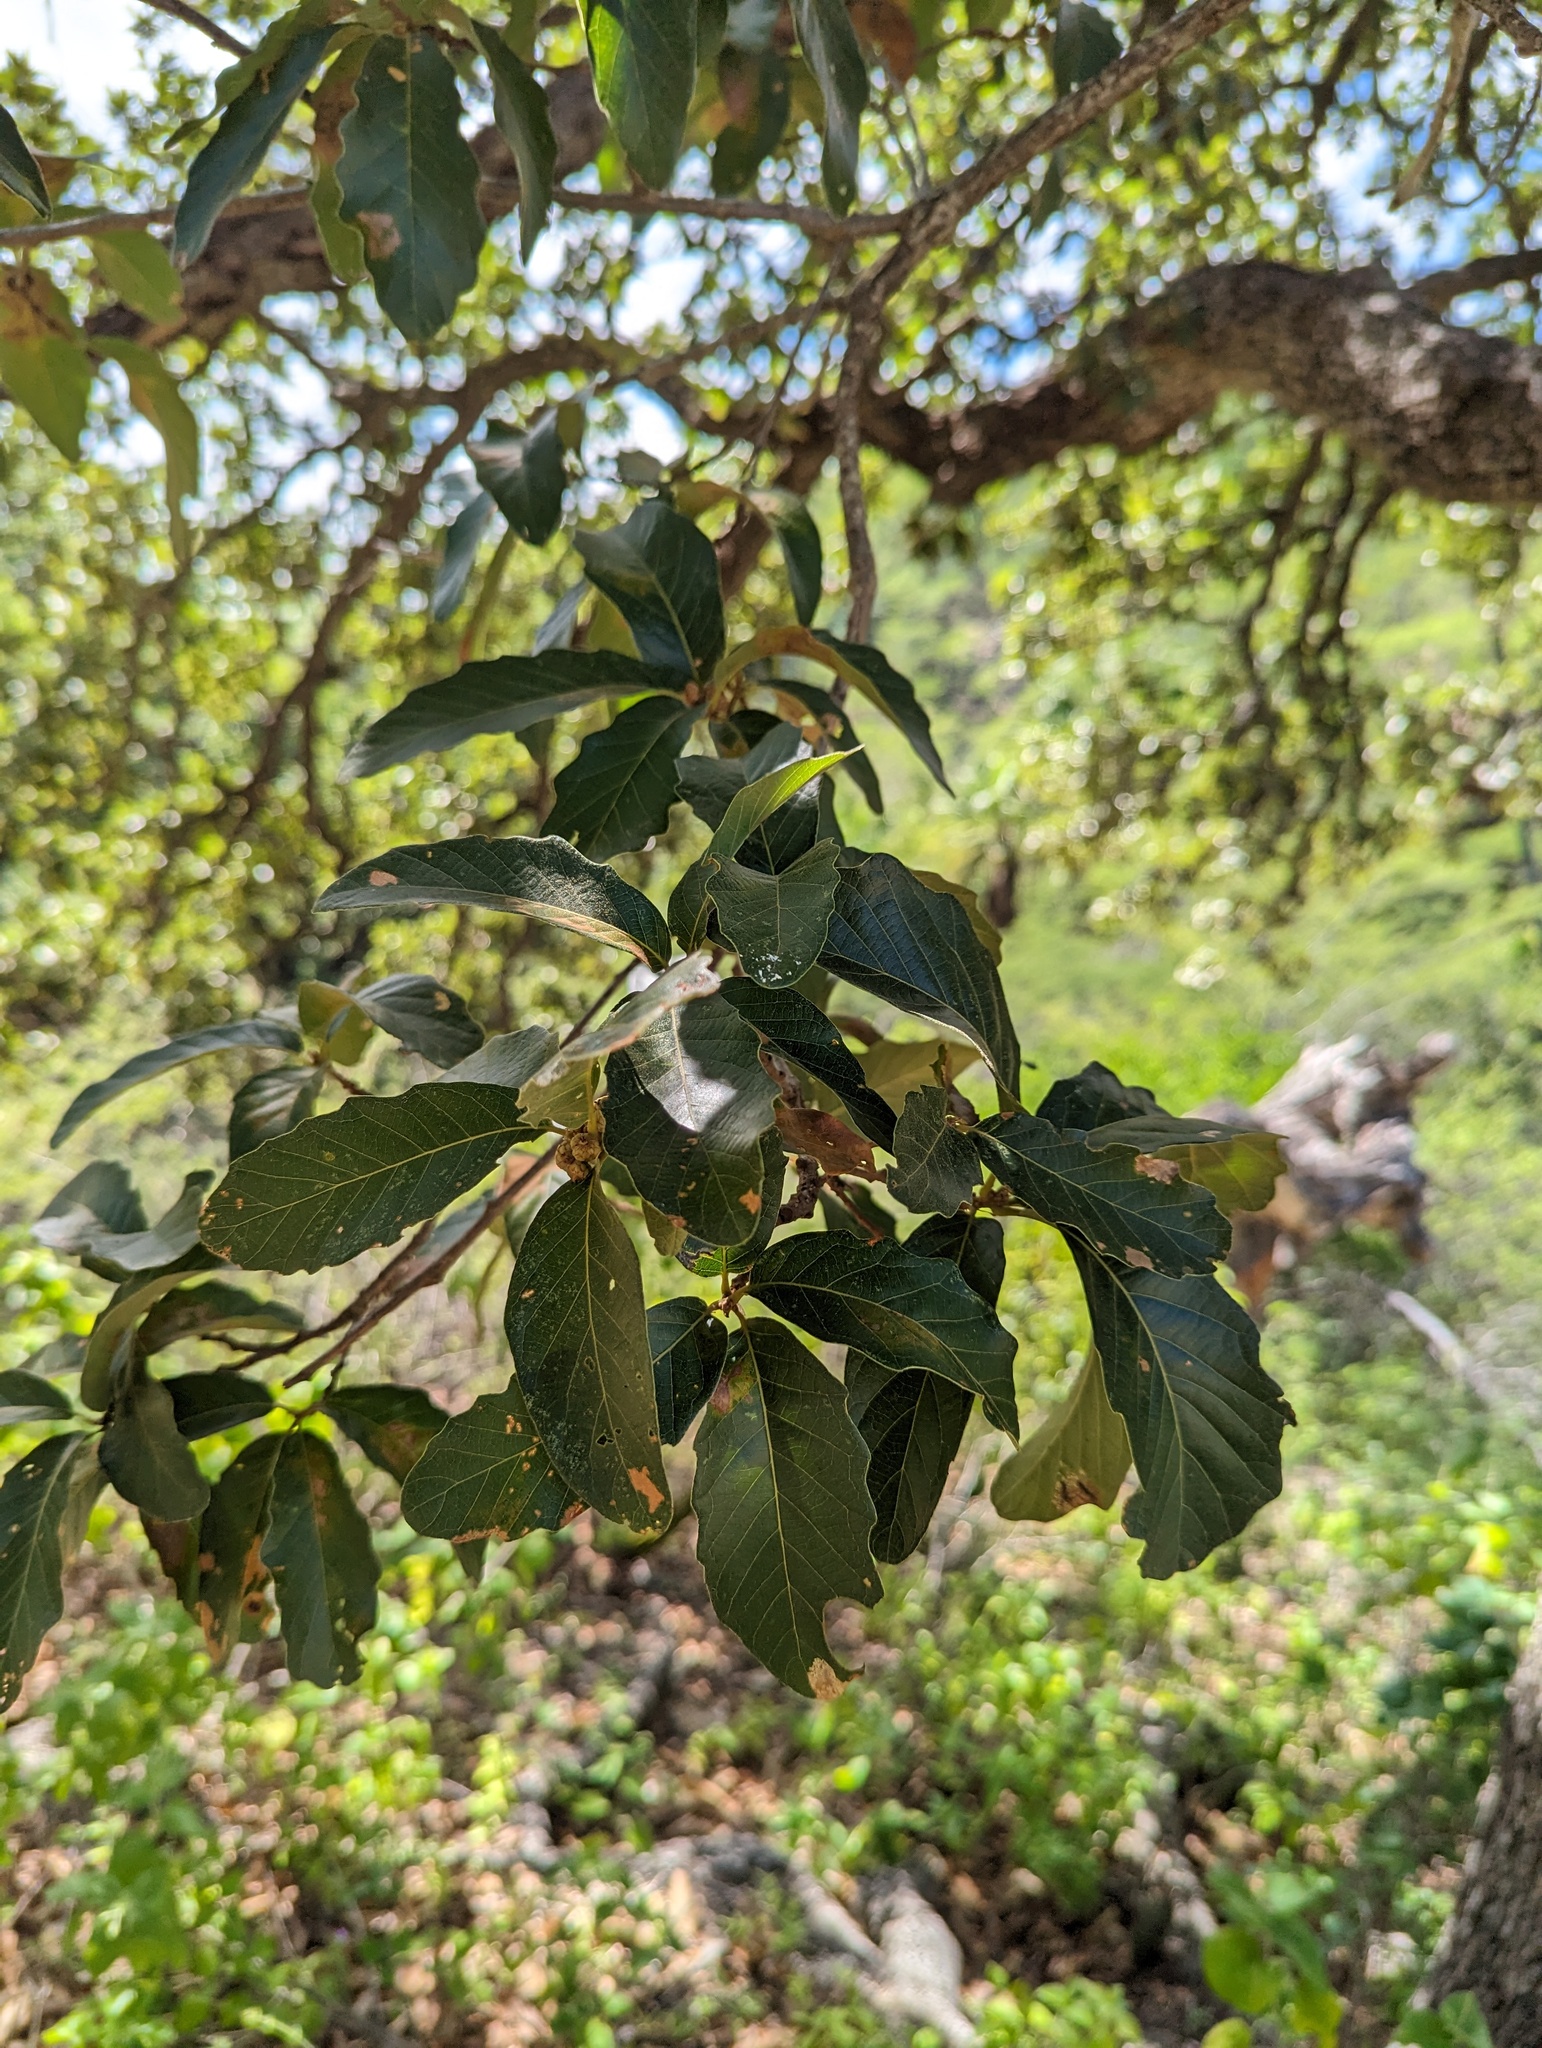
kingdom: Plantae
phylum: Tracheophyta
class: Magnoliopsida
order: Fagales
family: Fagaceae
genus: Quercus
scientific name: Quercus tuberculata
